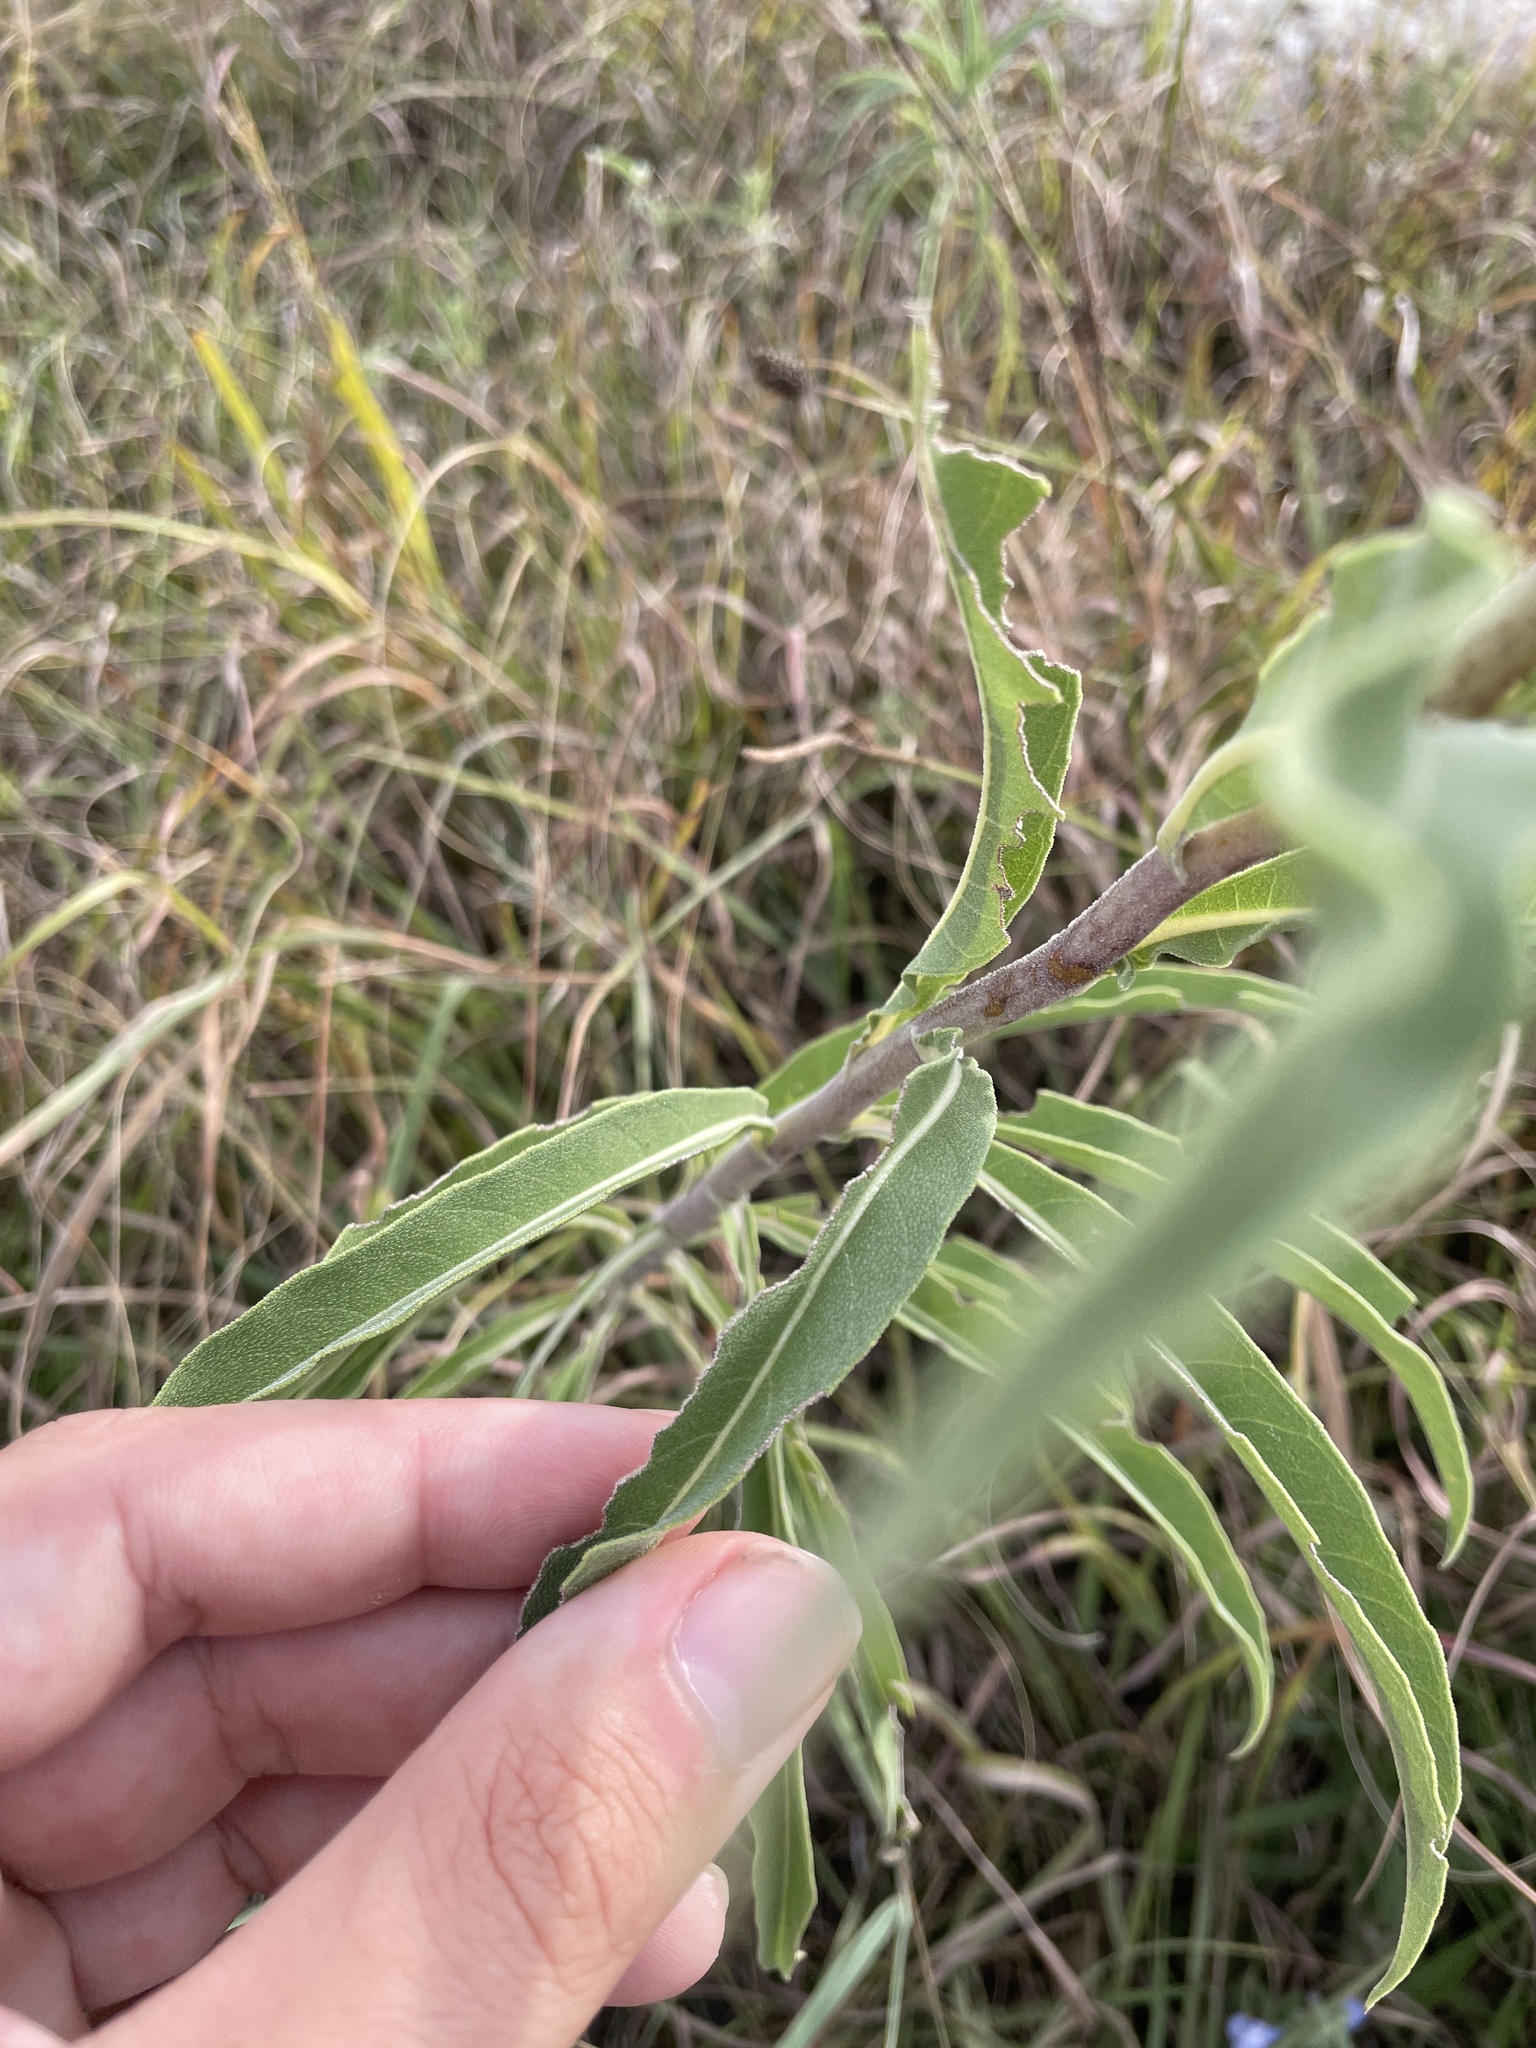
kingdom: Plantae
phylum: Tracheophyta
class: Magnoliopsida
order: Asterales
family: Asteraceae
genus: Helianthus
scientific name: Helianthus maximiliani
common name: Maximilian's sunflower
